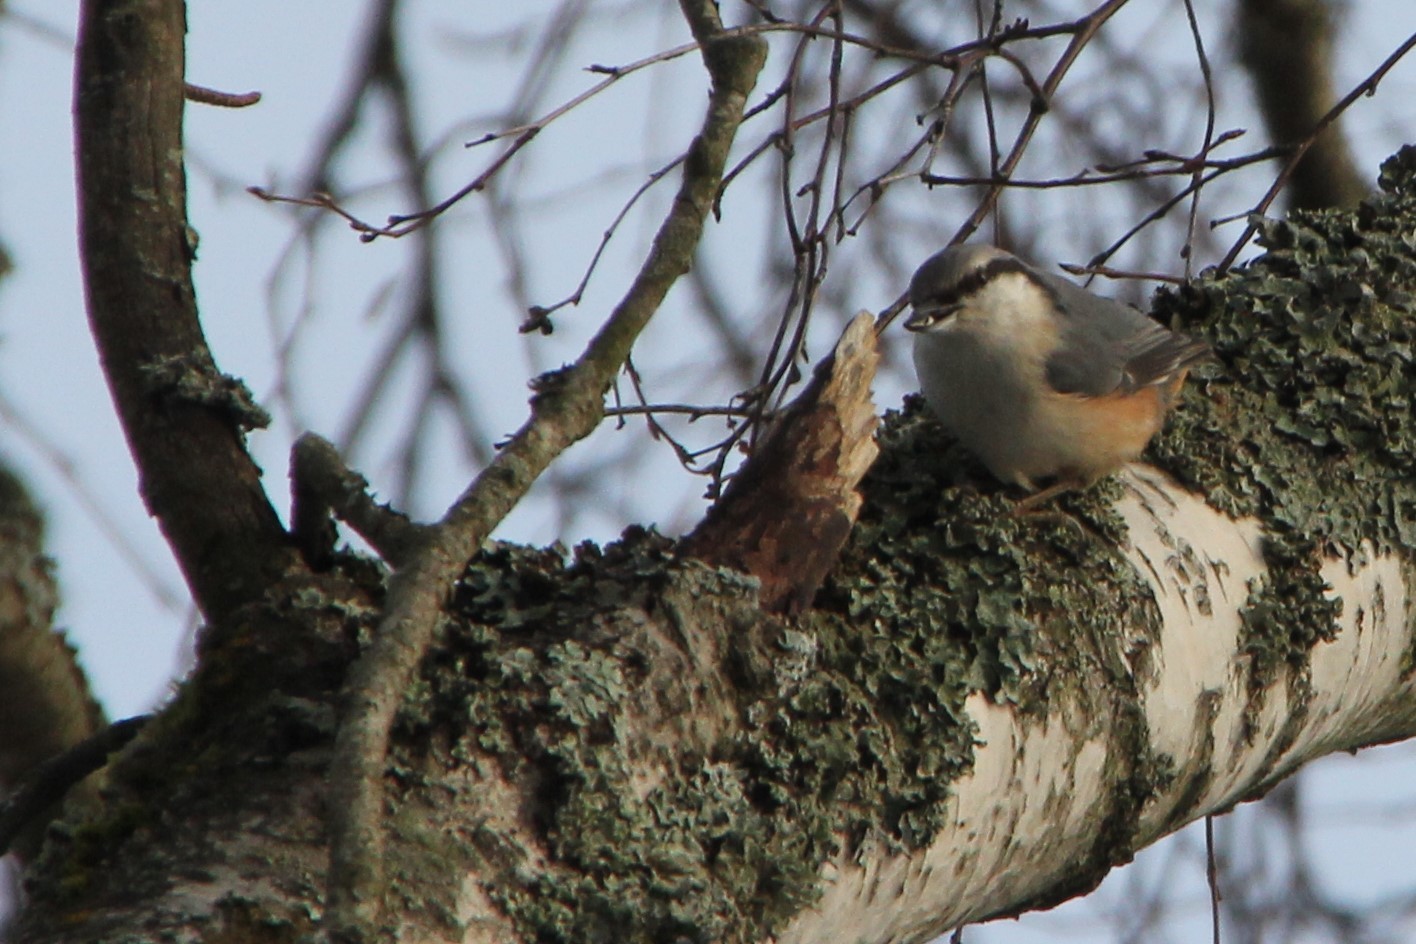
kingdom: Animalia
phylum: Chordata
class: Aves
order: Passeriformes
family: Sittidae
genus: Sitta
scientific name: Sitta europaea
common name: Eurasian nuthatch
